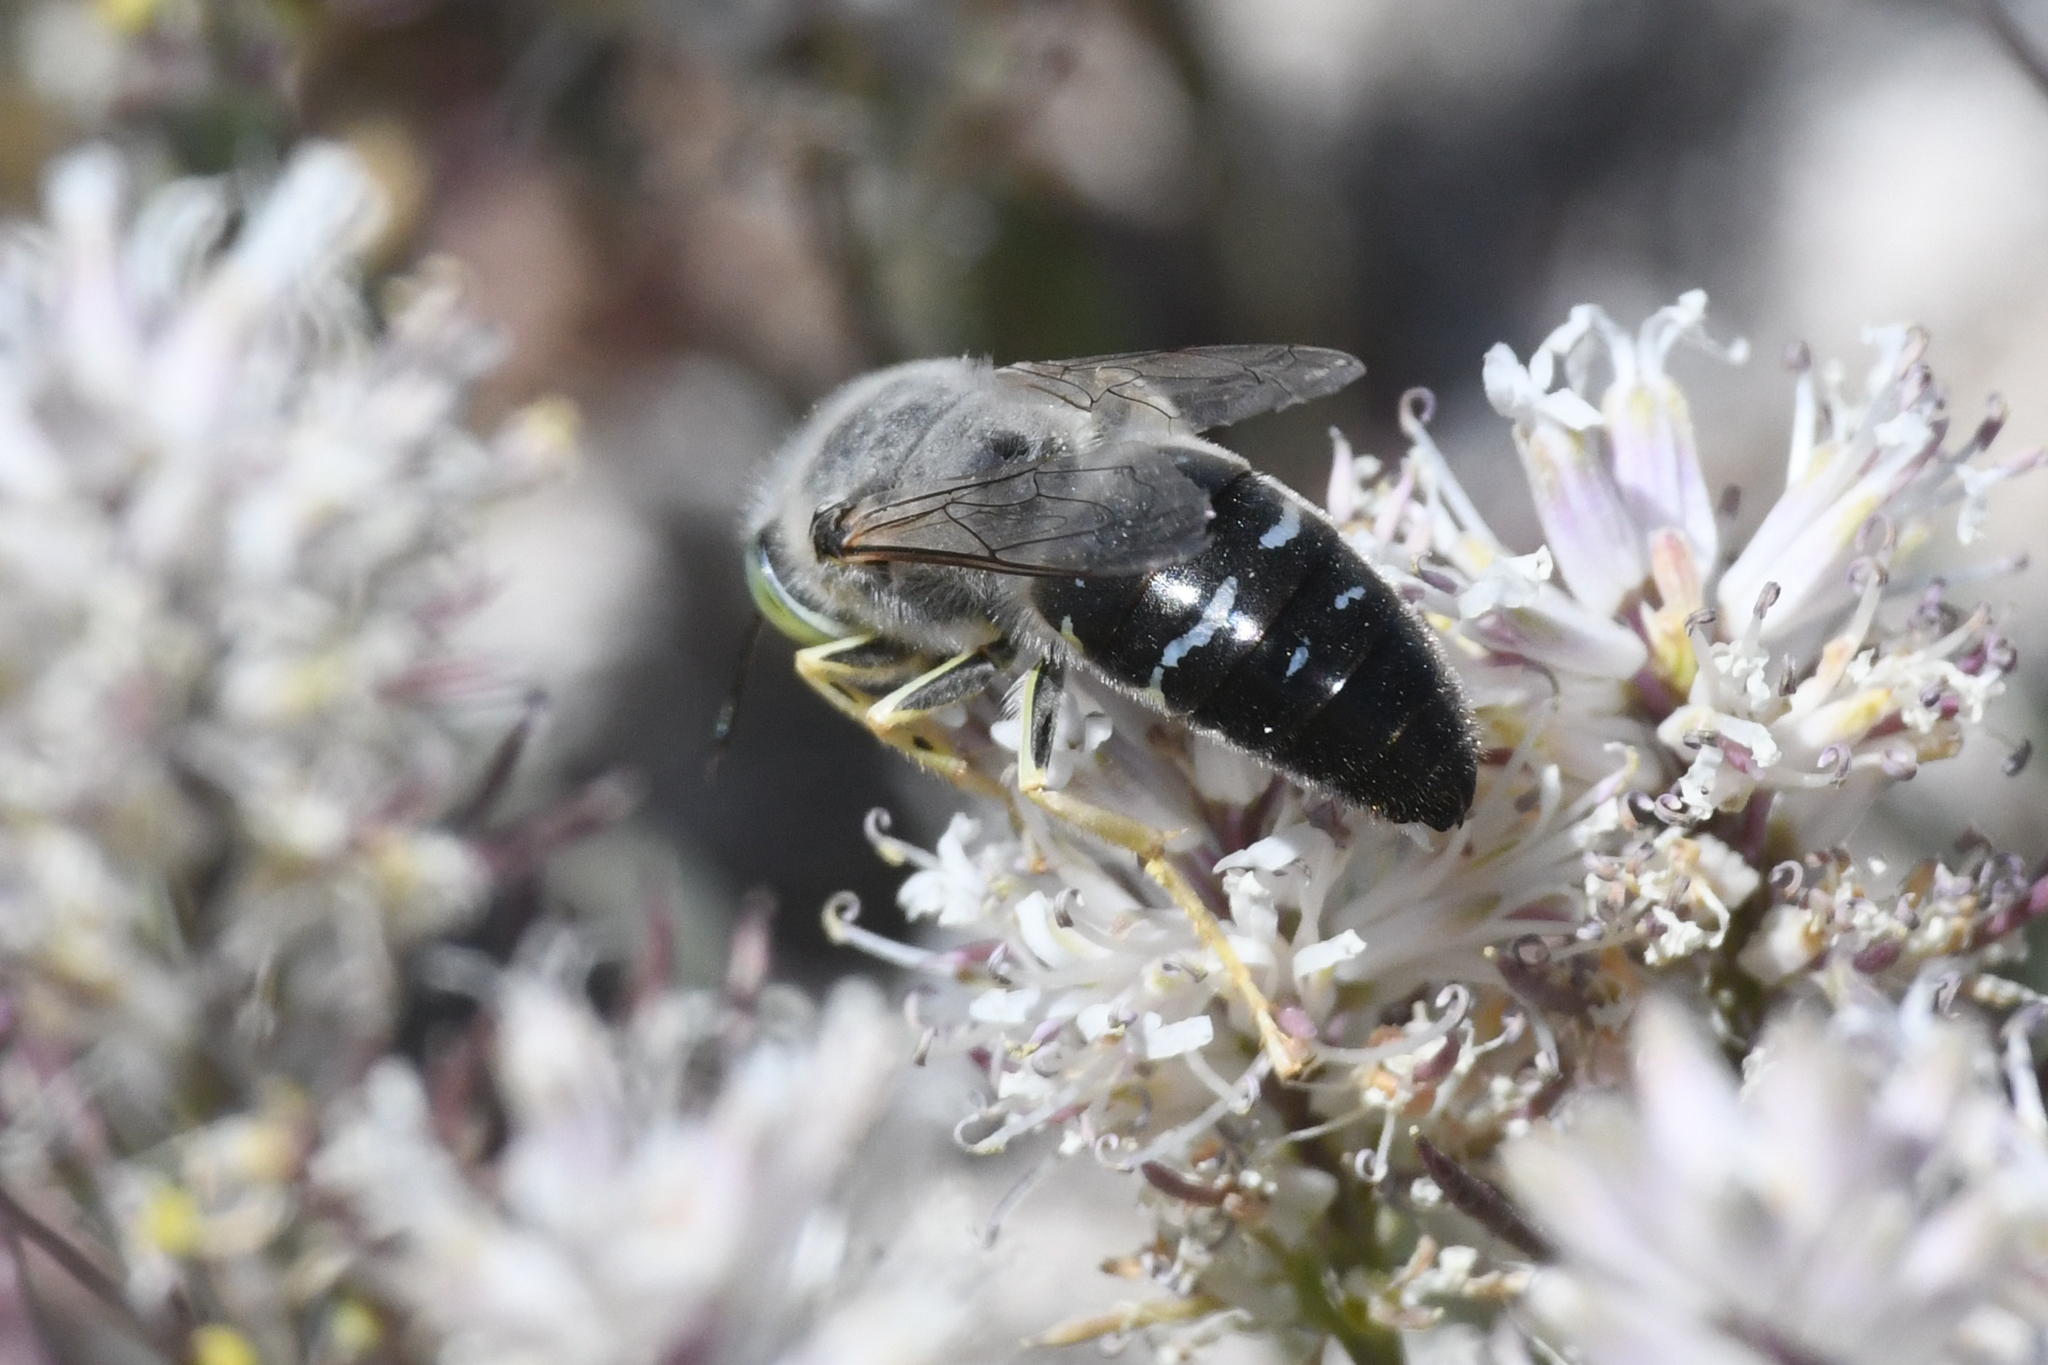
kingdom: Animalia
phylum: Arthropoda
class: Insecta
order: Hymenoptera
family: Crabronidae
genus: Bembix
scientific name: Bembix amoena
